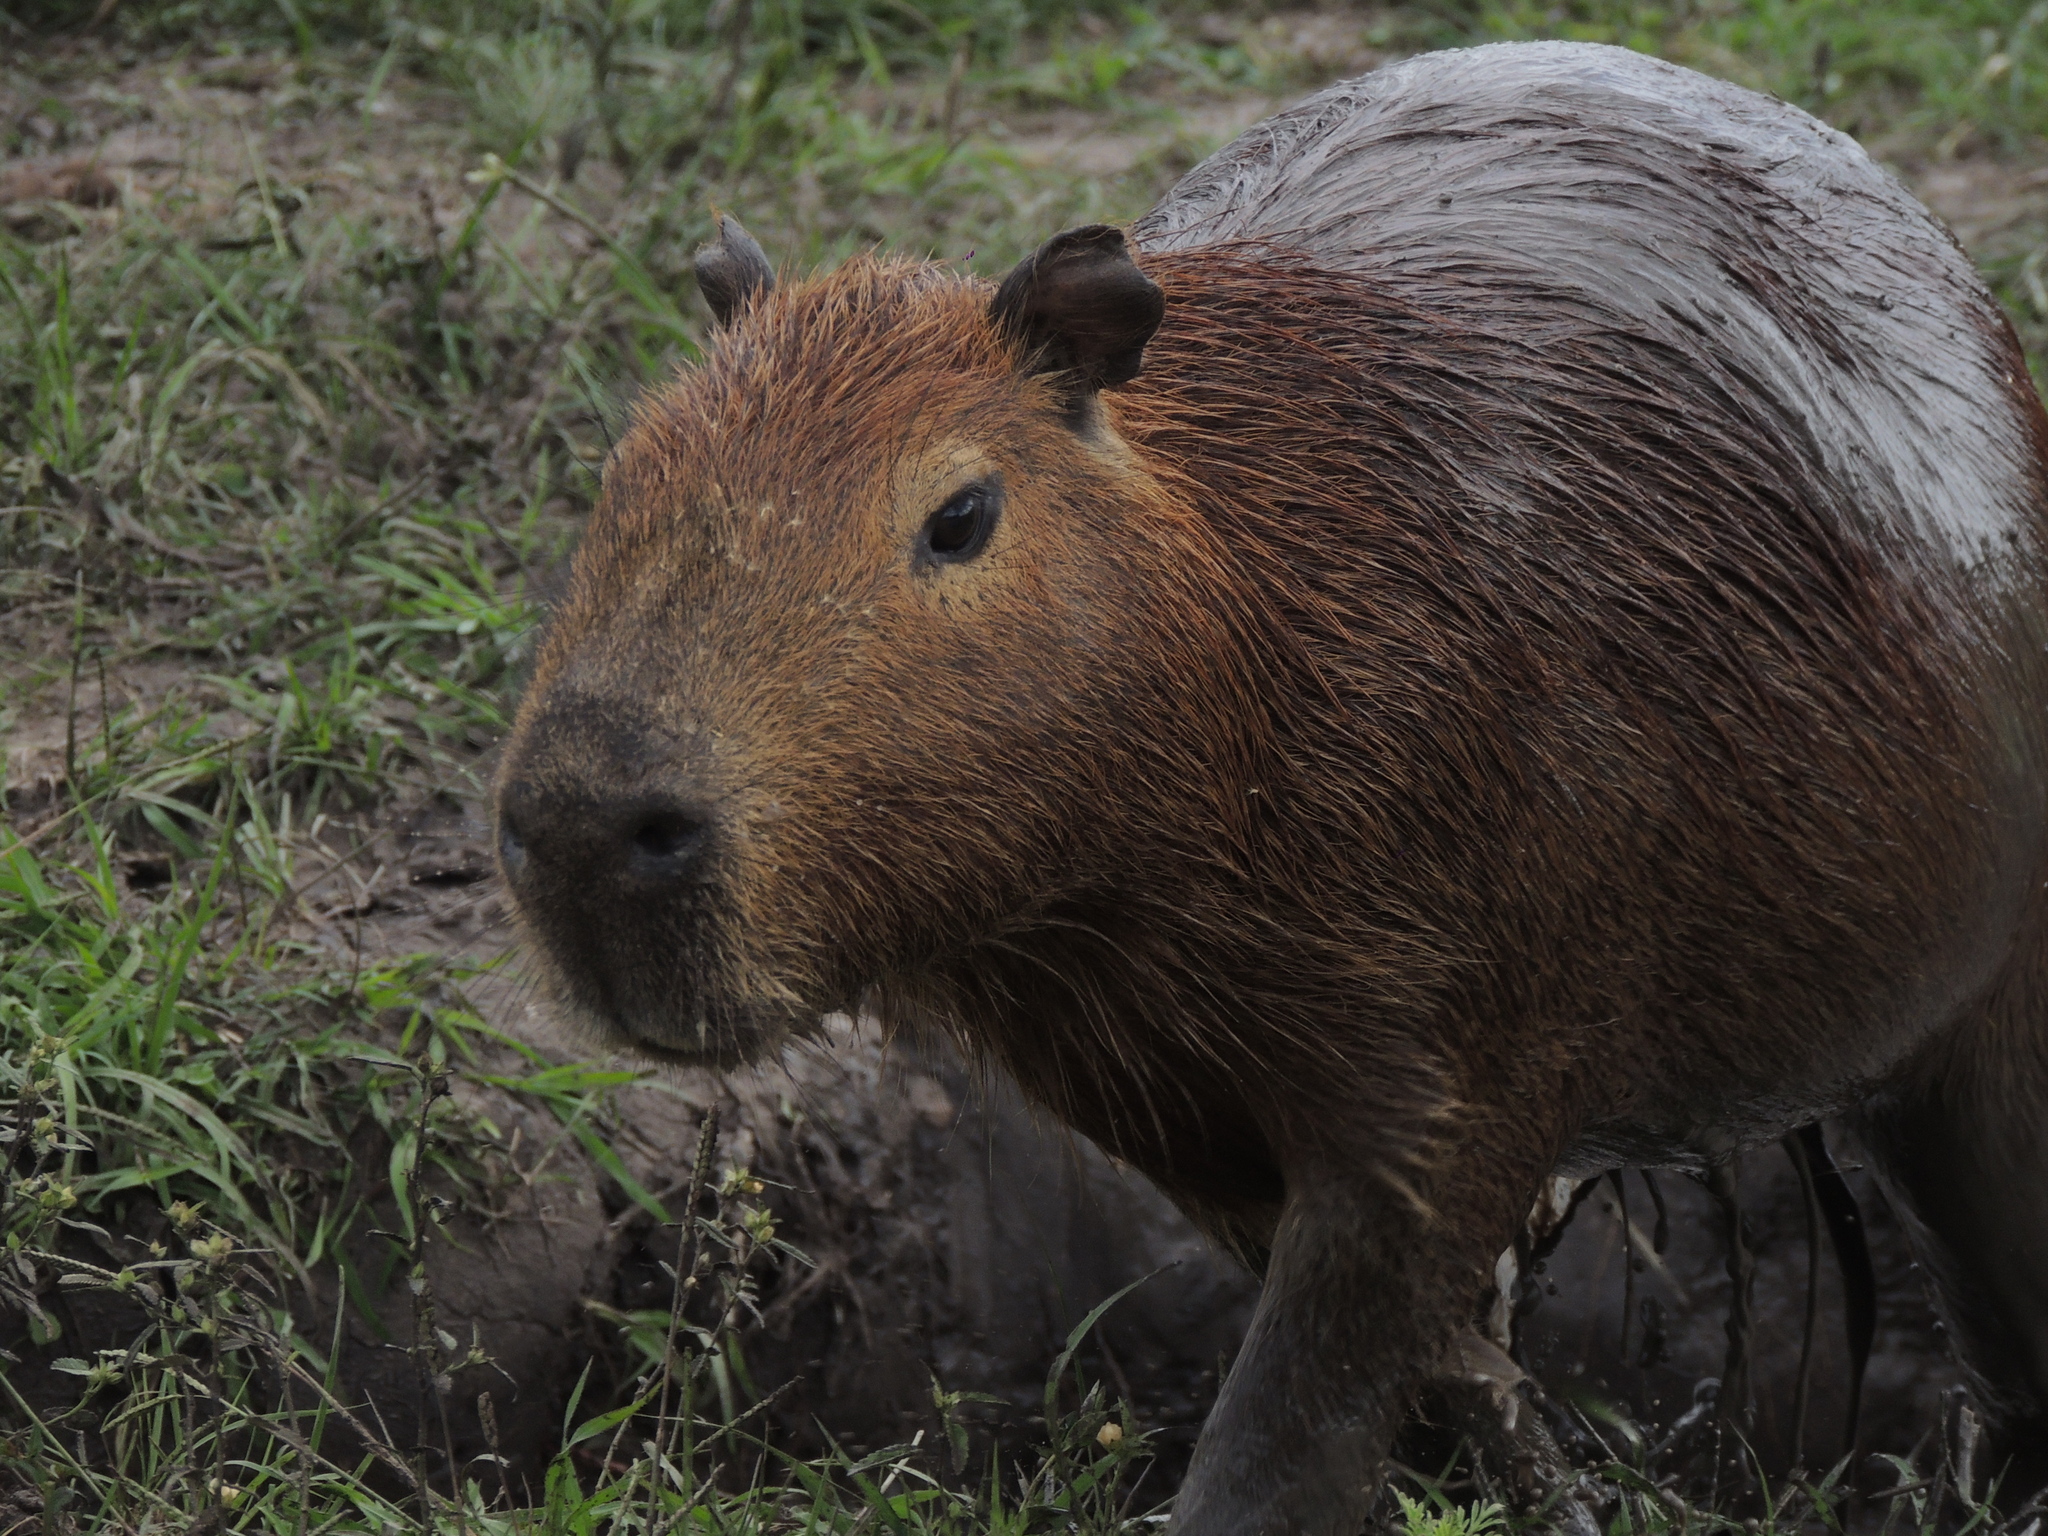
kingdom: Animalia
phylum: Chordata
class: Mammalia
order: Rodentia
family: Caviidae
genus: Hydrochoerus
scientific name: Hydrochoerus hydrochaeris
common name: Capybara
